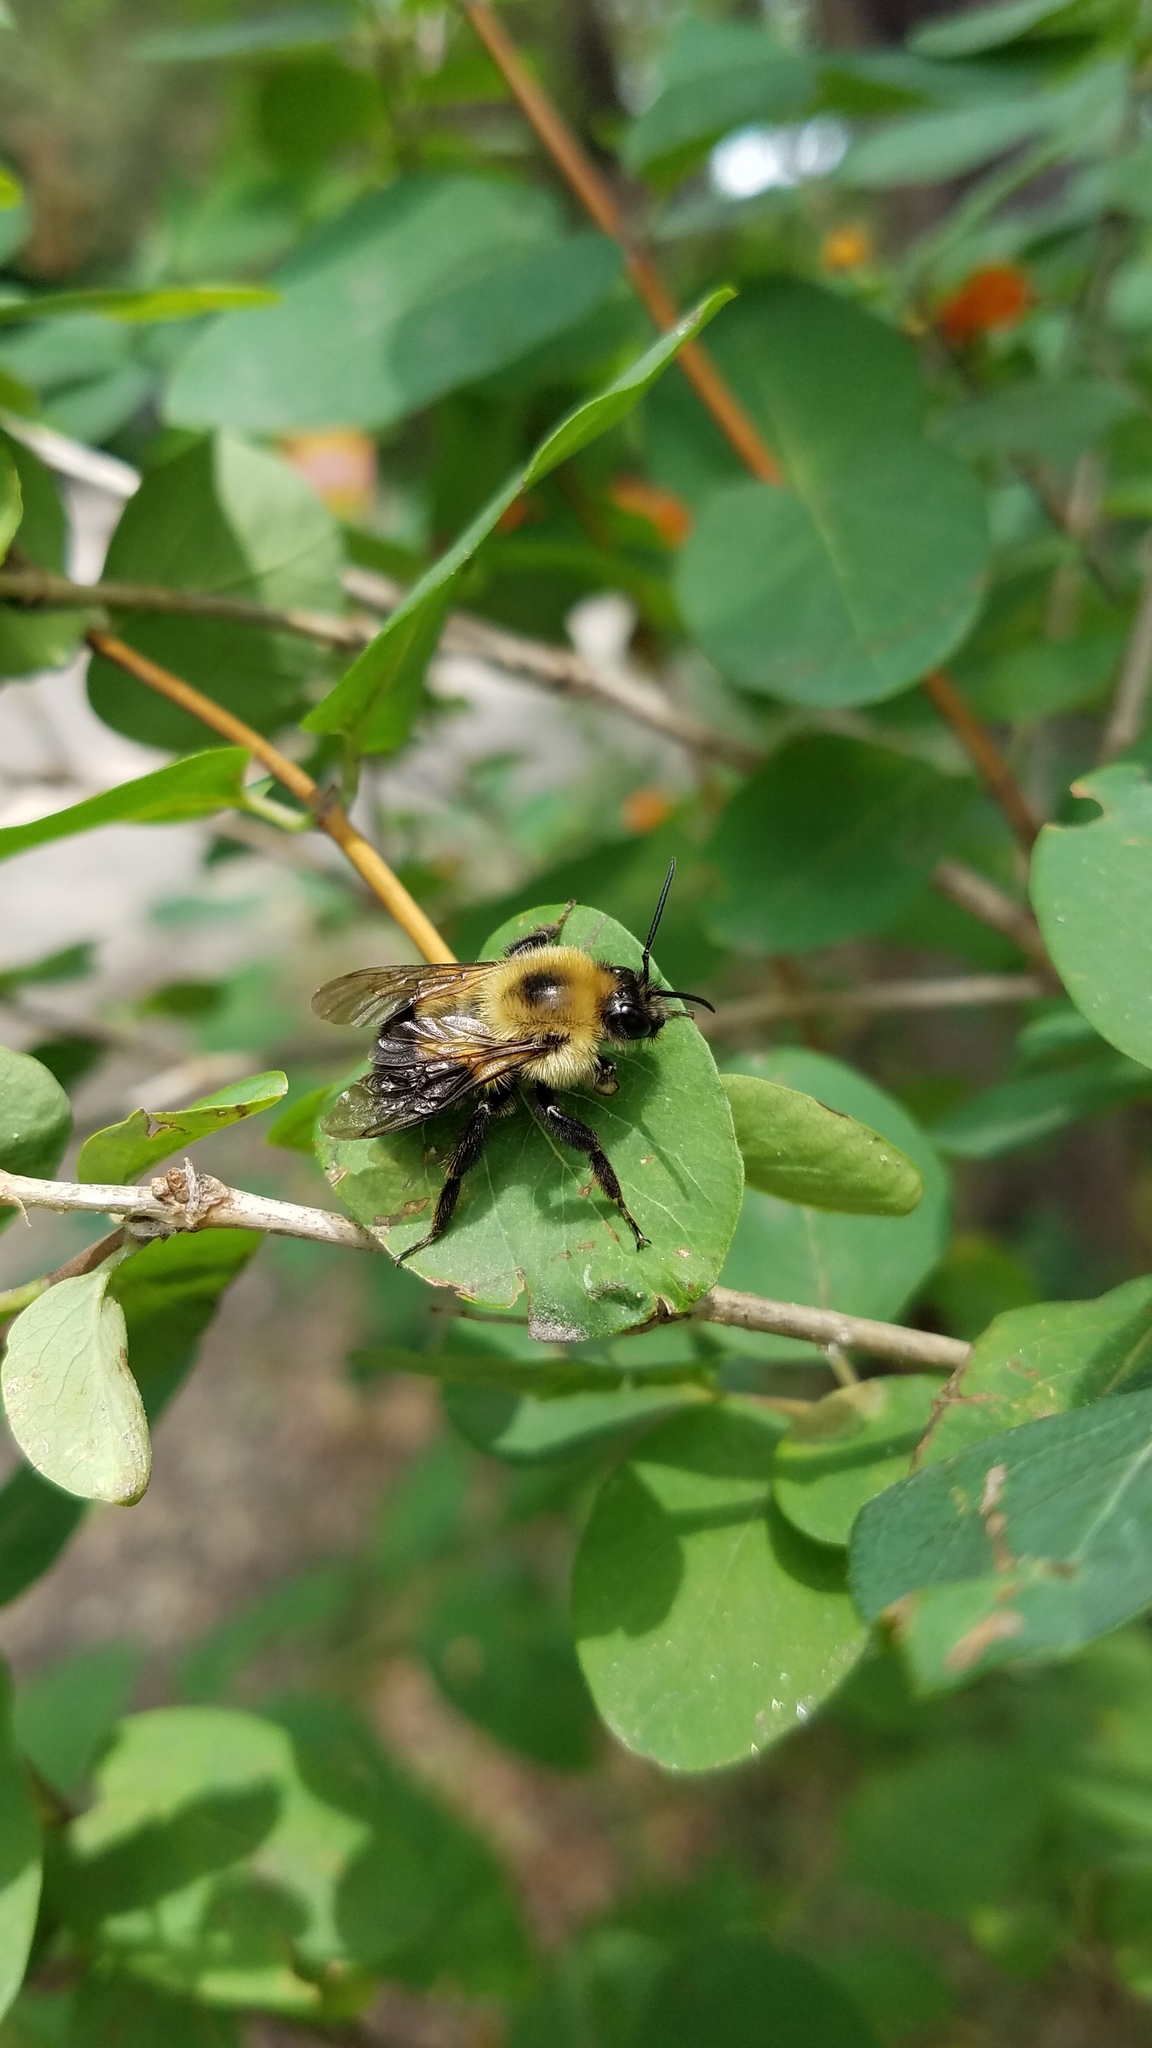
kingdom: Animalia
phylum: Arthropoda
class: Insecta
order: Hymenoptera
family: Apidae
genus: Bombus
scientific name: Bombus bimaculatus
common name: Two-spotted bumble bee
